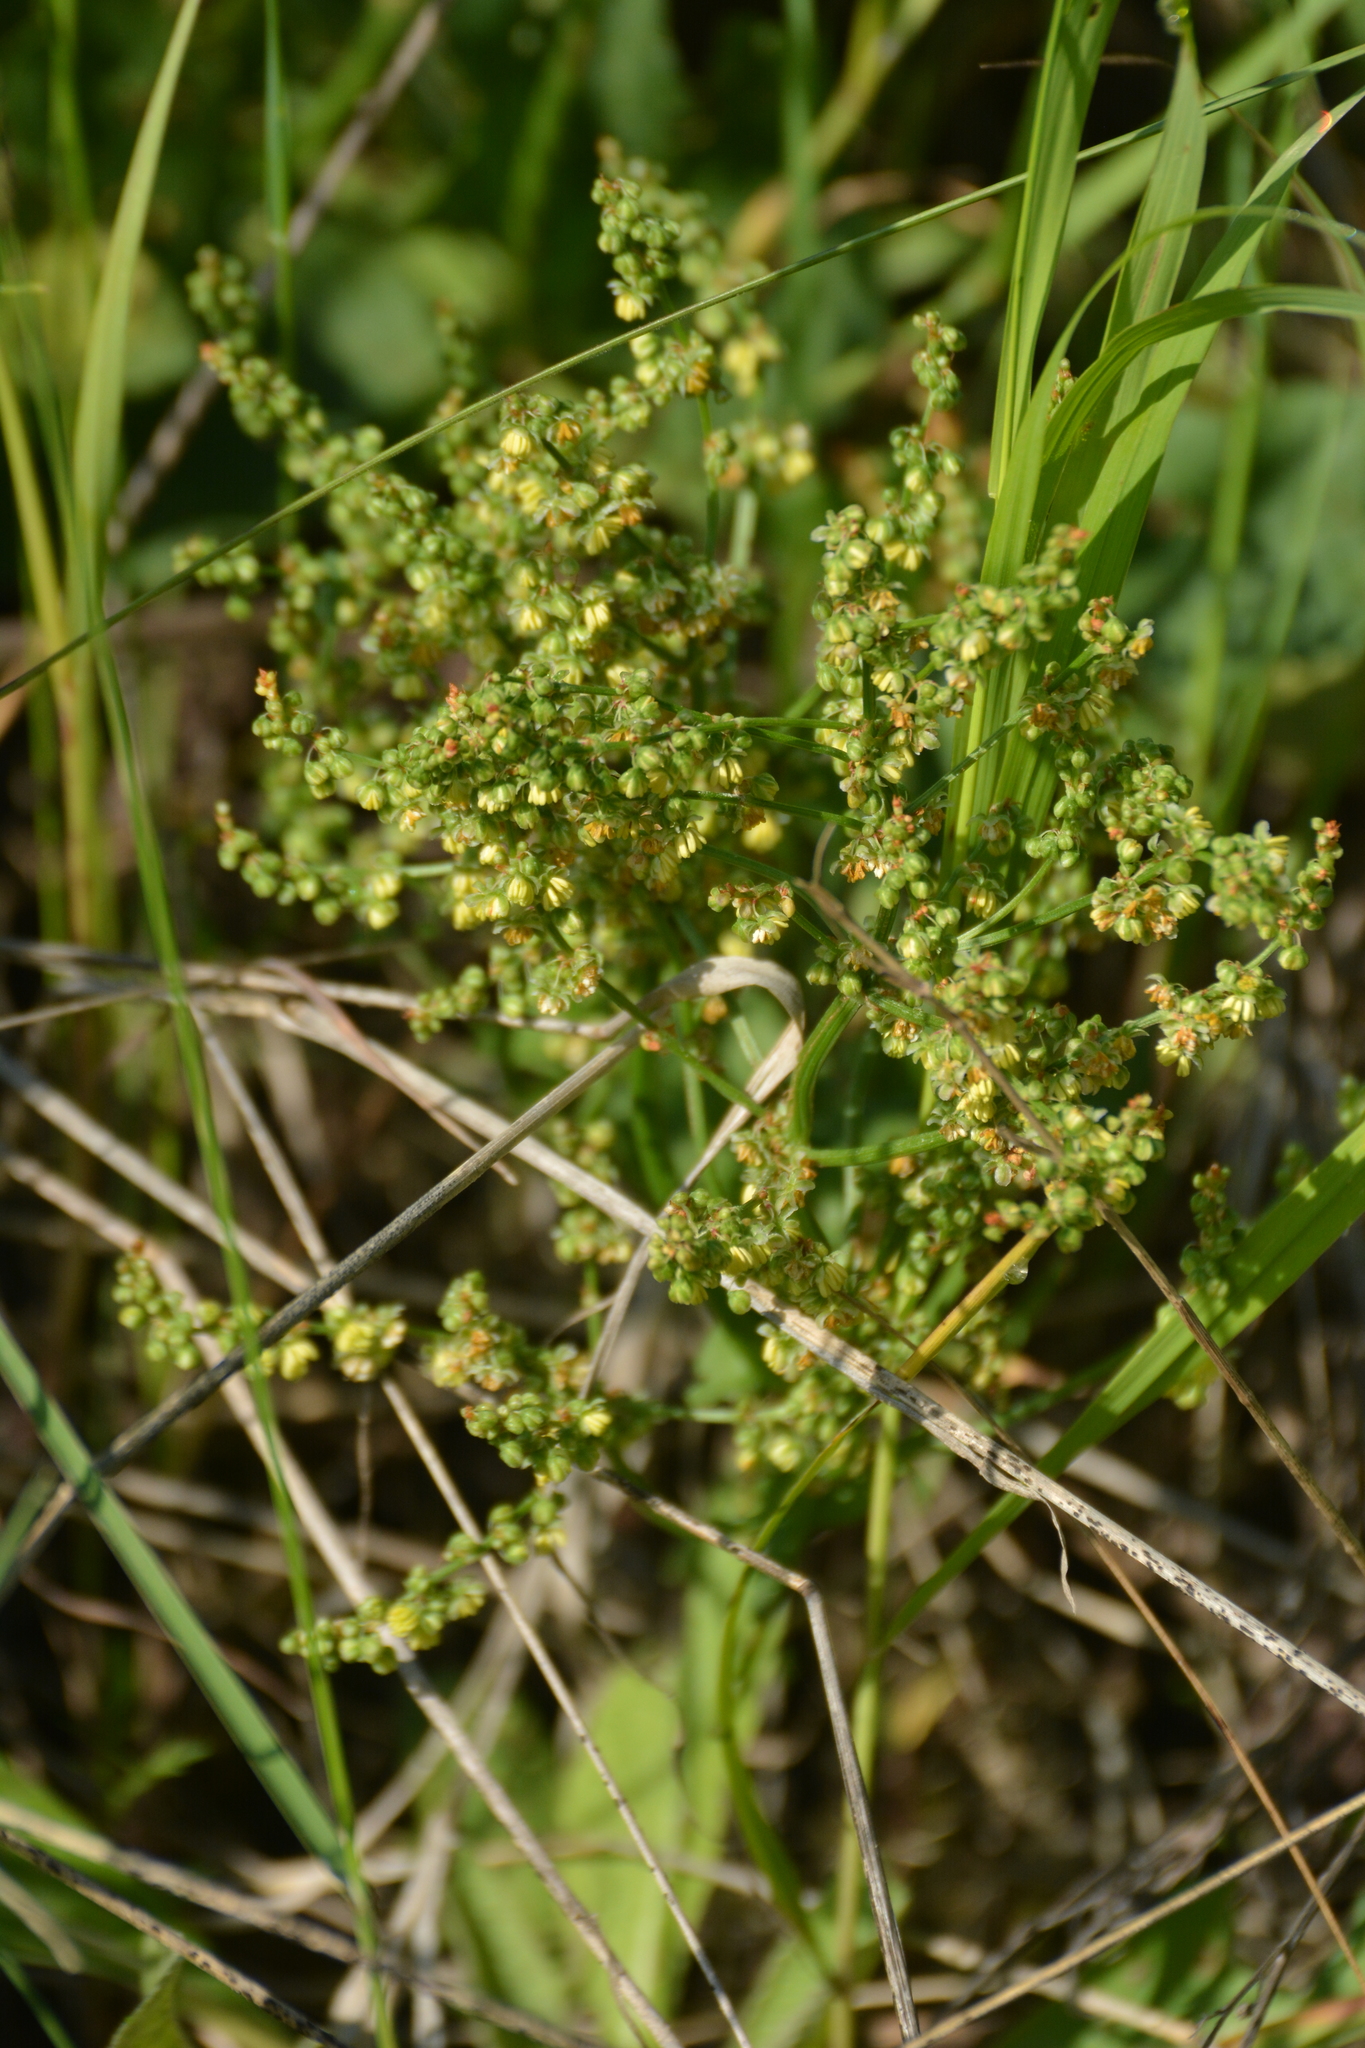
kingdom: Plantae
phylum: Tracheophyta
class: Magnoliopsida
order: Caryophyllales
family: Polygonaceae
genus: Rumex
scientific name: Rumex acetosella
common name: Common sheep sorrel
